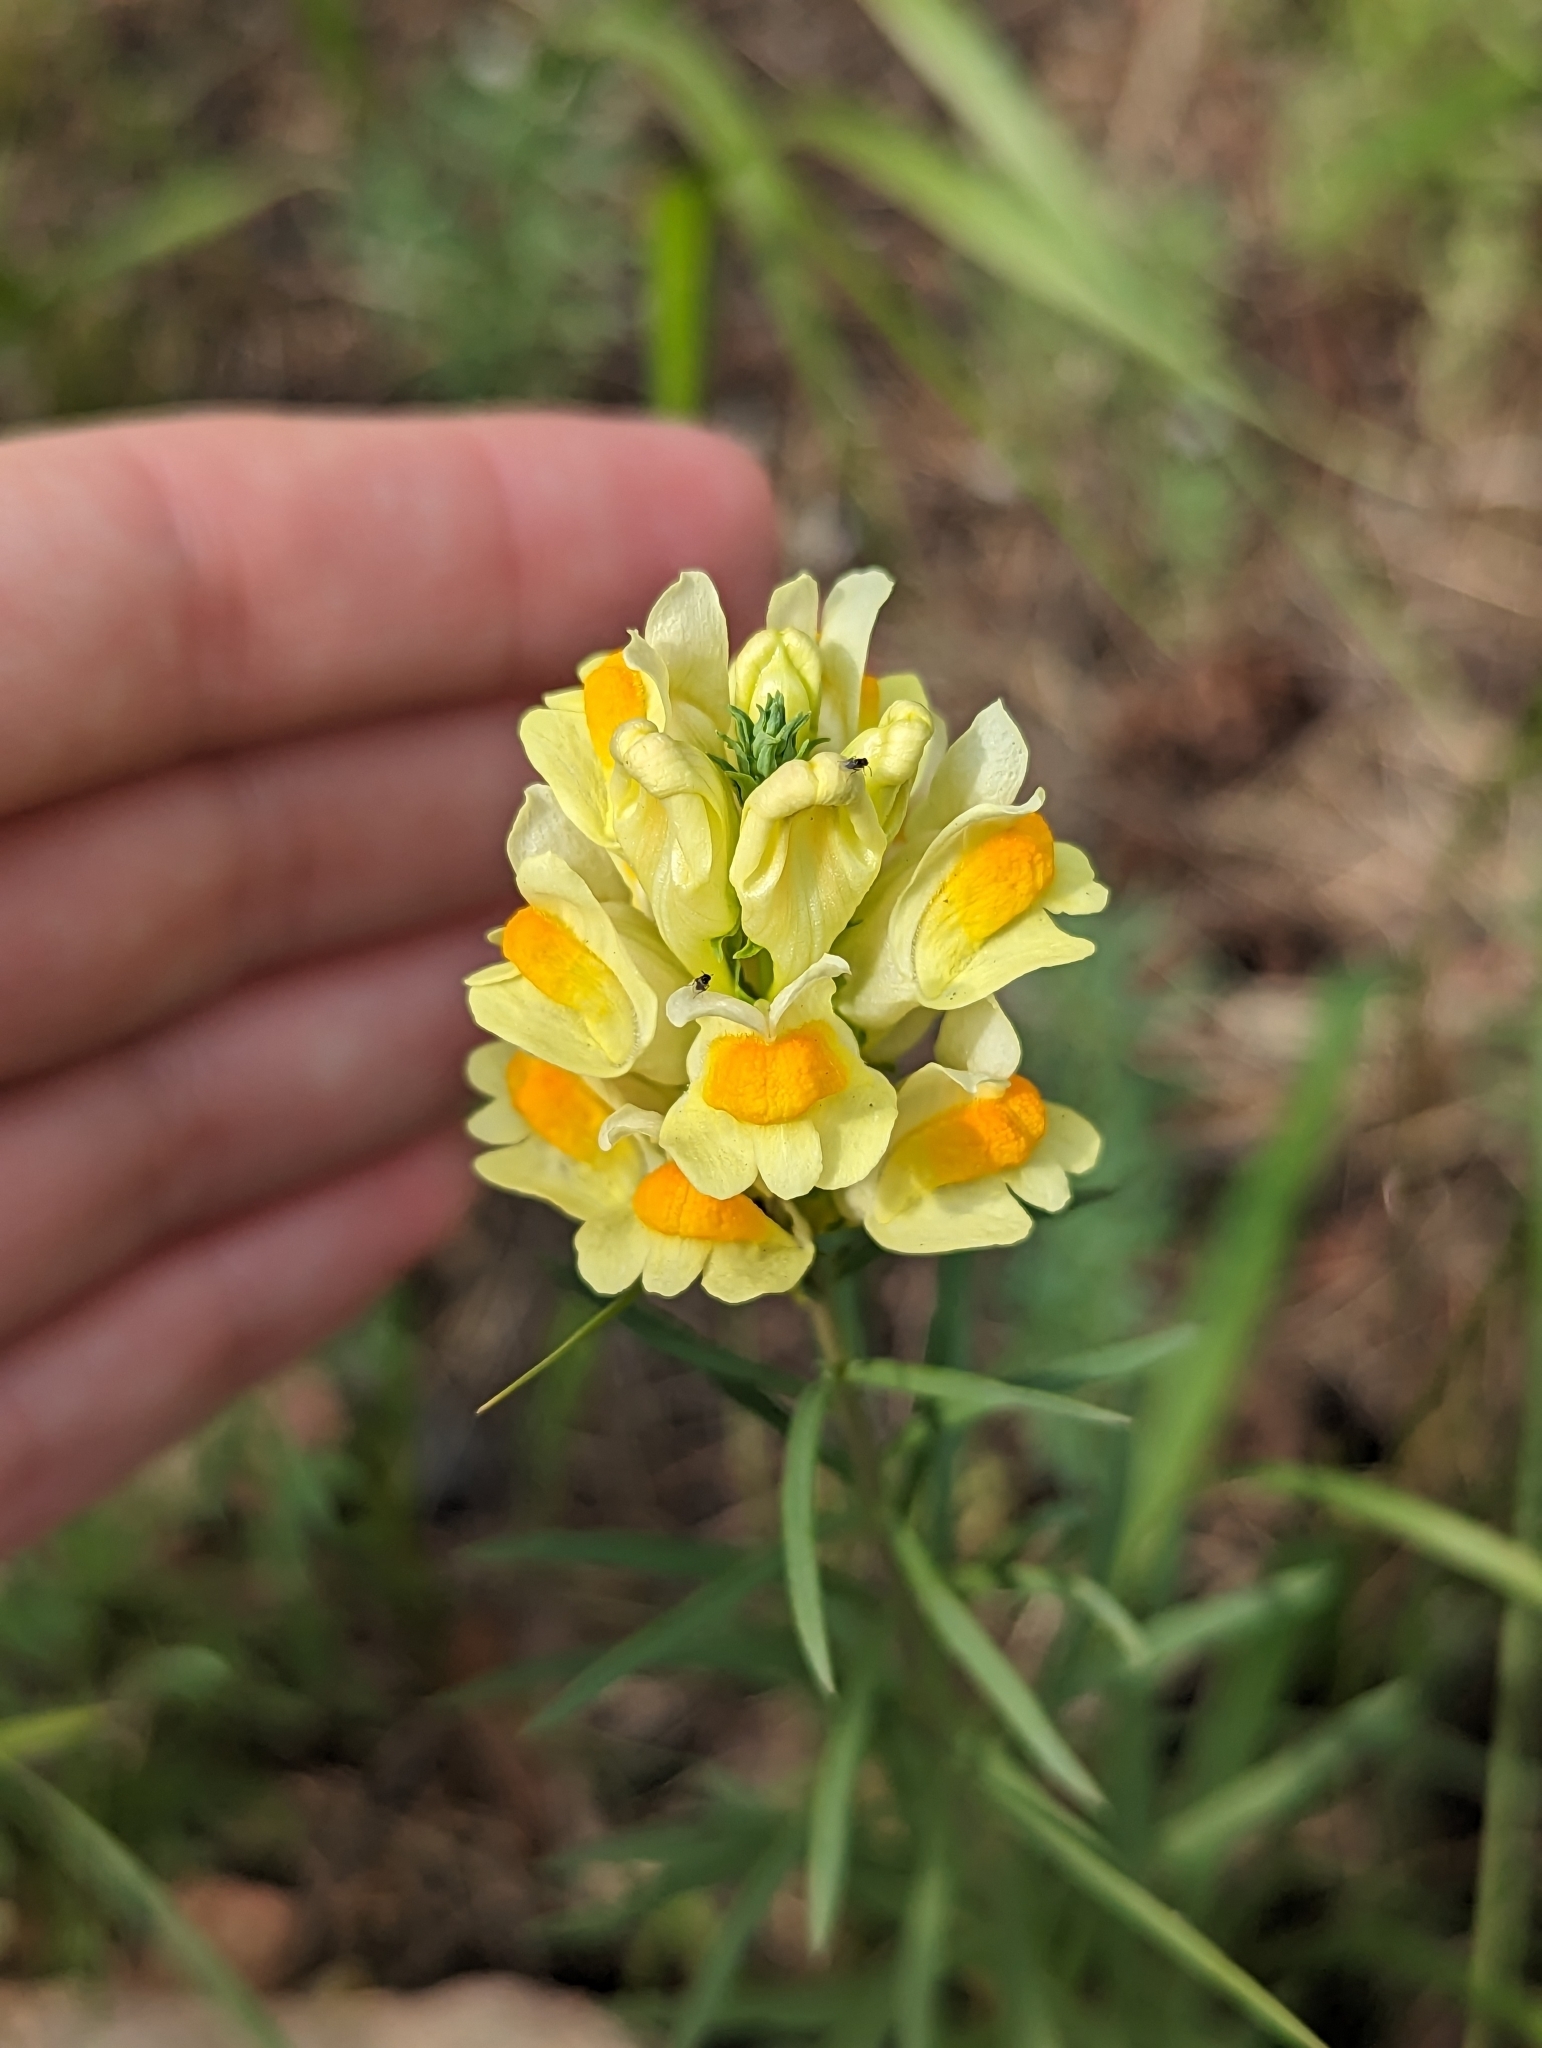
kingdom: Plantae
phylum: Tracheophyta
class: Magnoliopsida
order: Lamiales
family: Plantaginaceae
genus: Linaria
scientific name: Linaria vulgaris
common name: Butter and eggs
